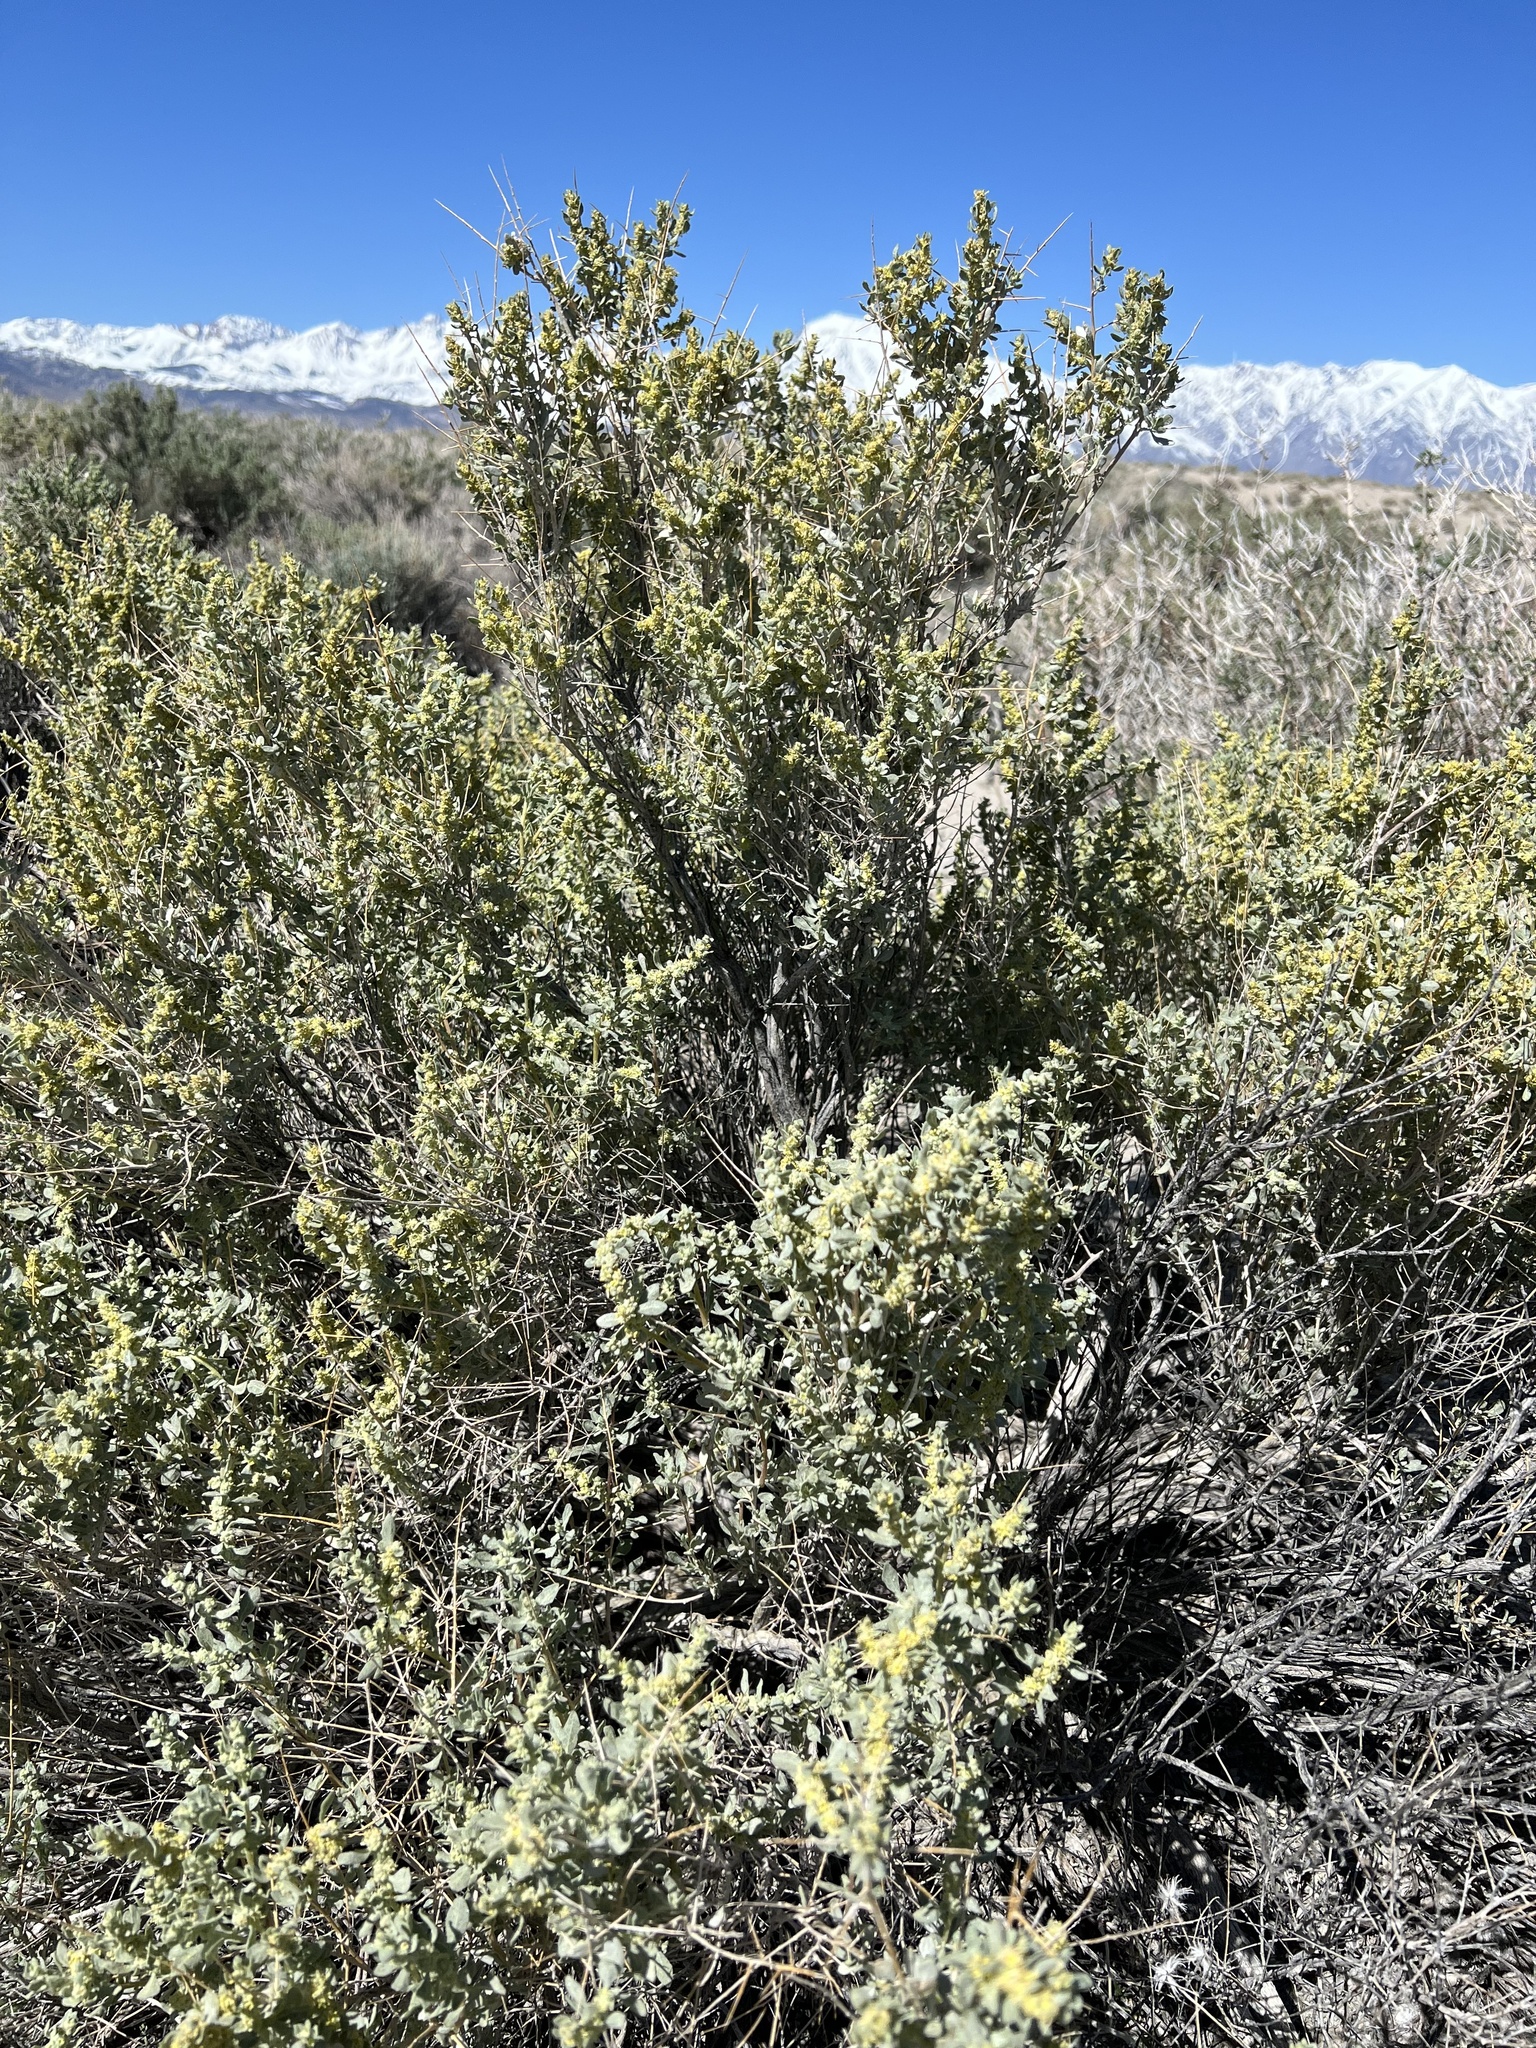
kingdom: Plantae
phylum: Tracheophyta
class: Magnoliopsida
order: Caryophyllales
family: Amaranthaceae
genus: Atriplex
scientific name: Atriplex confertifolia
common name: Shadscale
